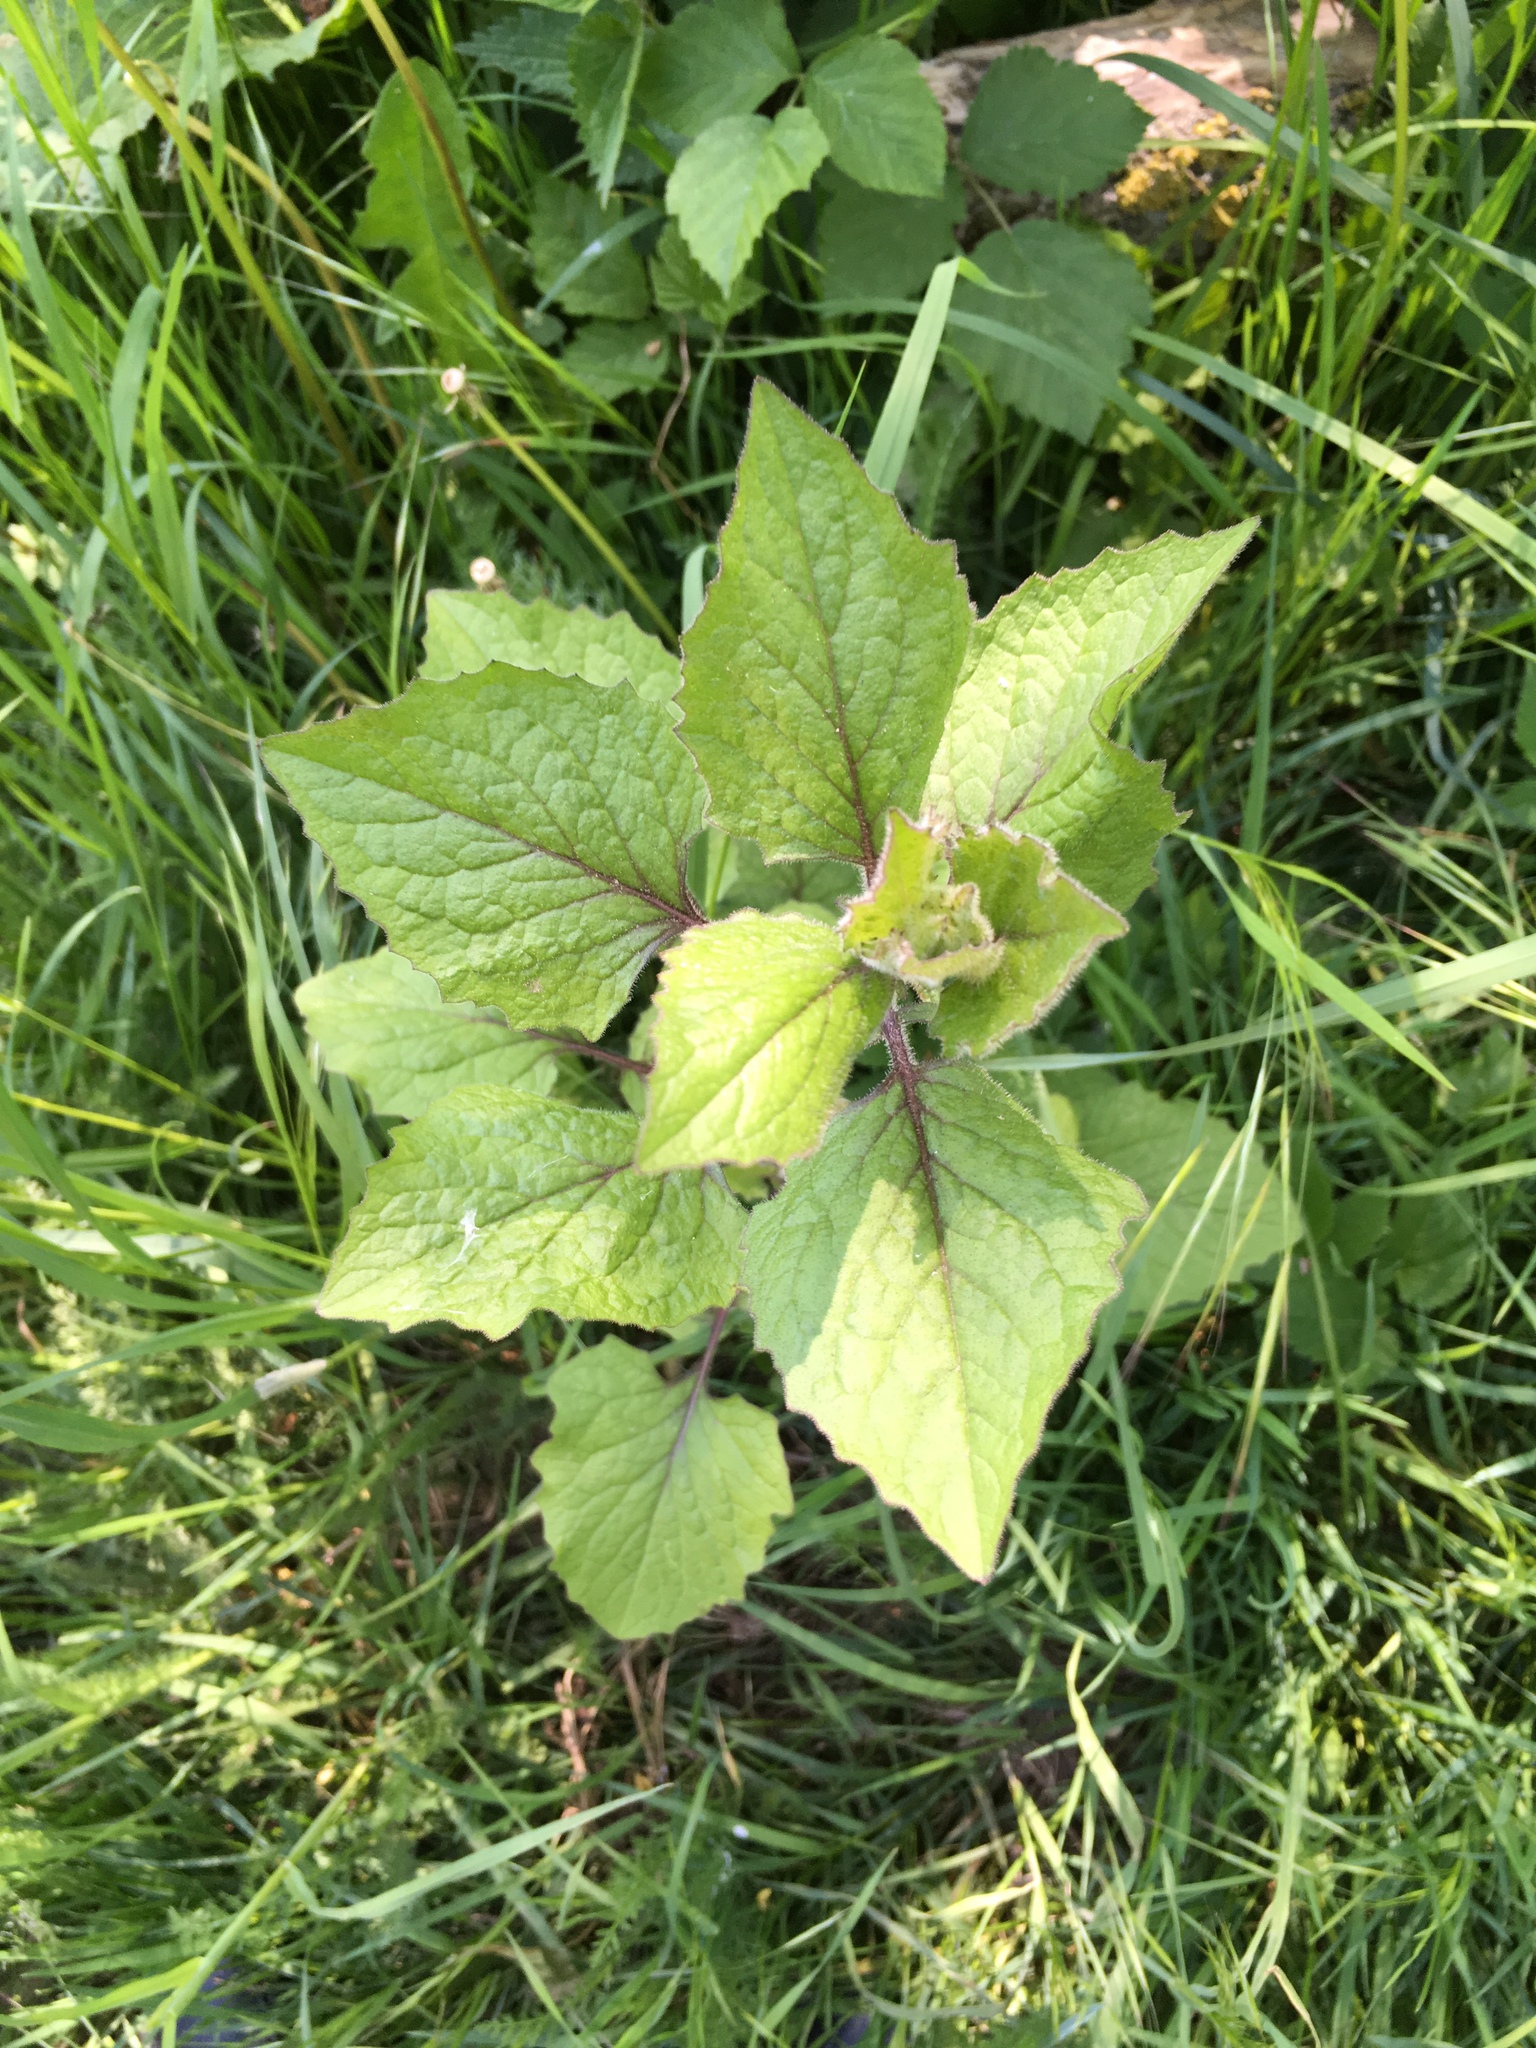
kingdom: Plantae
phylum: Tracheophyta
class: Magnoliopsida
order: Asterales
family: Asteraceae
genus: Lapsana
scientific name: Lapsana communis
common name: Nipplewort
